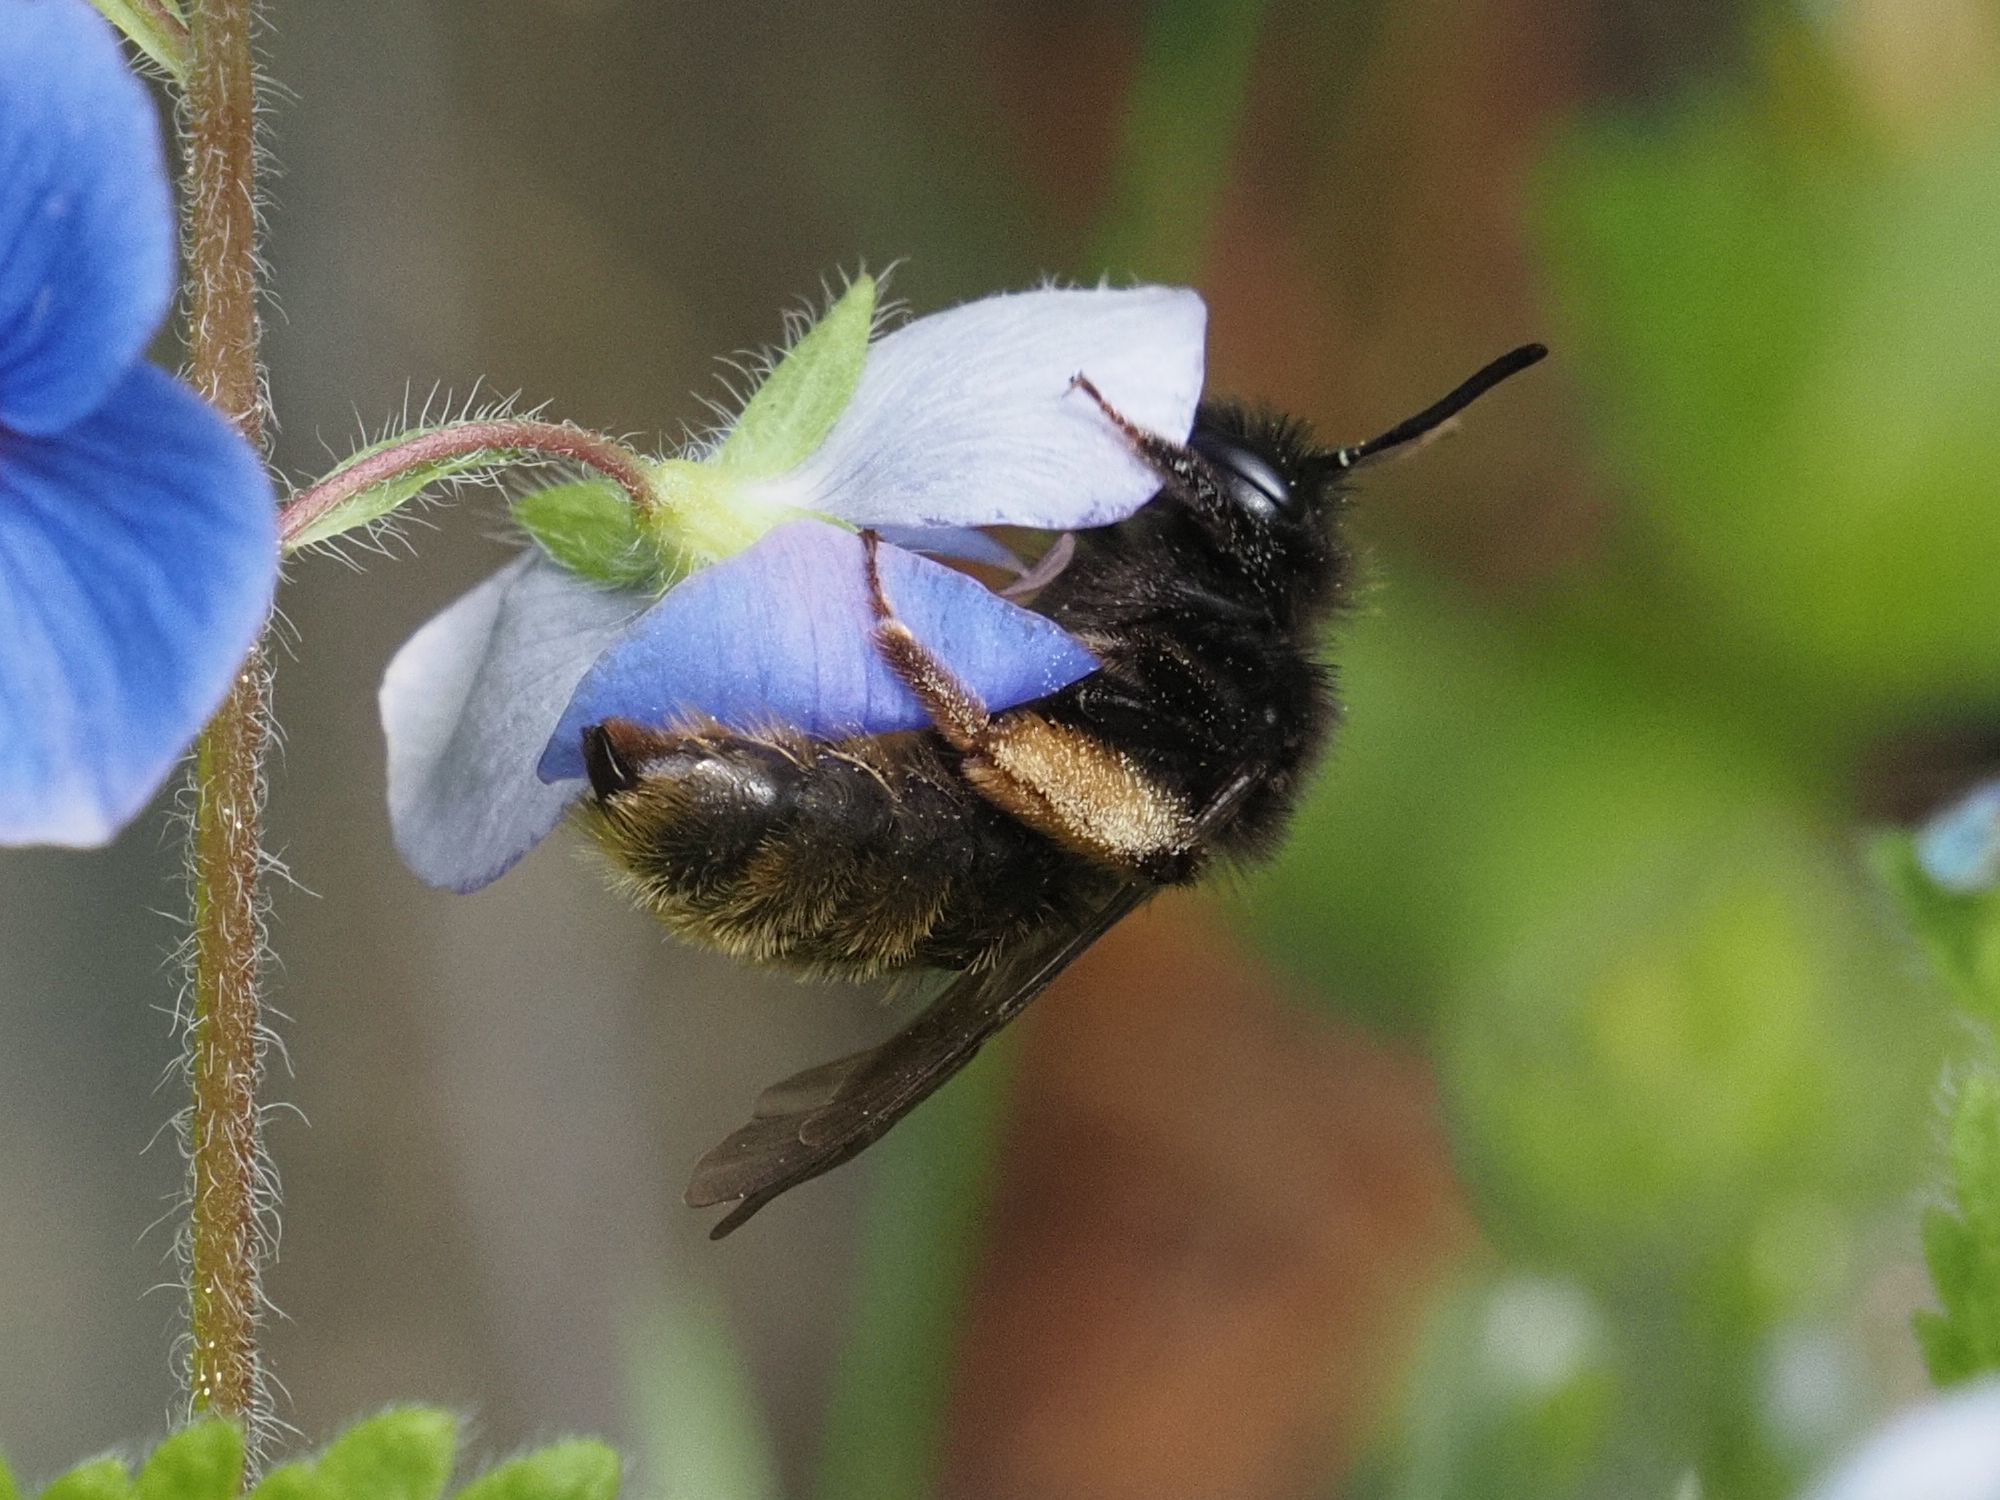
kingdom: Animalia
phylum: Arthropoda
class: Insecta
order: Hymenoptera
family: Andrenidae
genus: Andrena
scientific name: Andrena rogenhoferi
